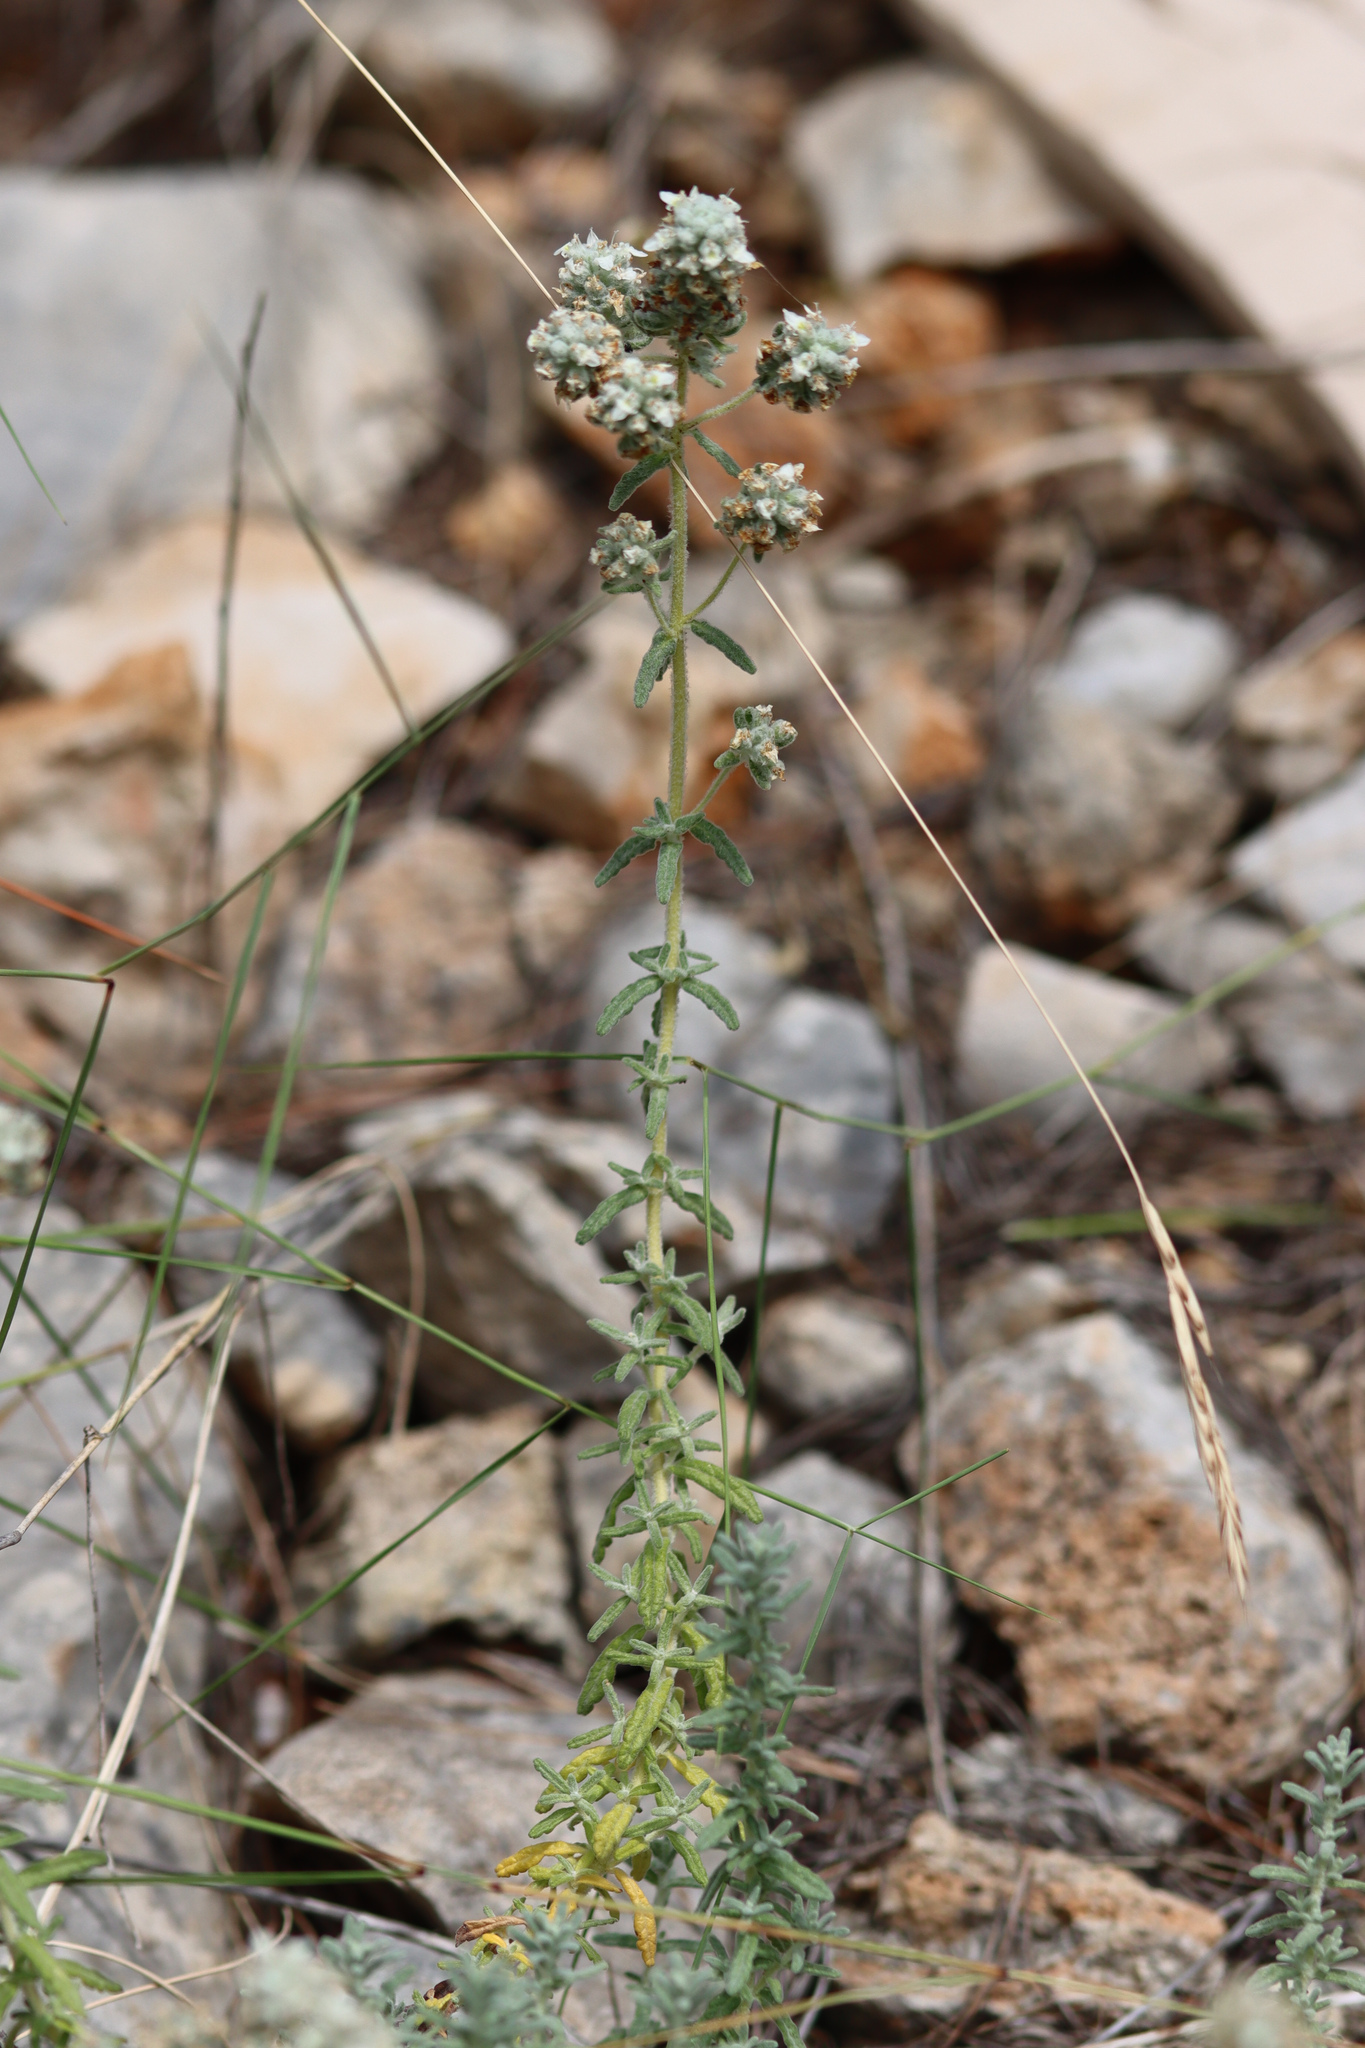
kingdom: Plantae
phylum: Tracheophyta
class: Magnoliopsida
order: Lamiales
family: Lamiaceae
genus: Teucrium
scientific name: Teucrium capitatum
